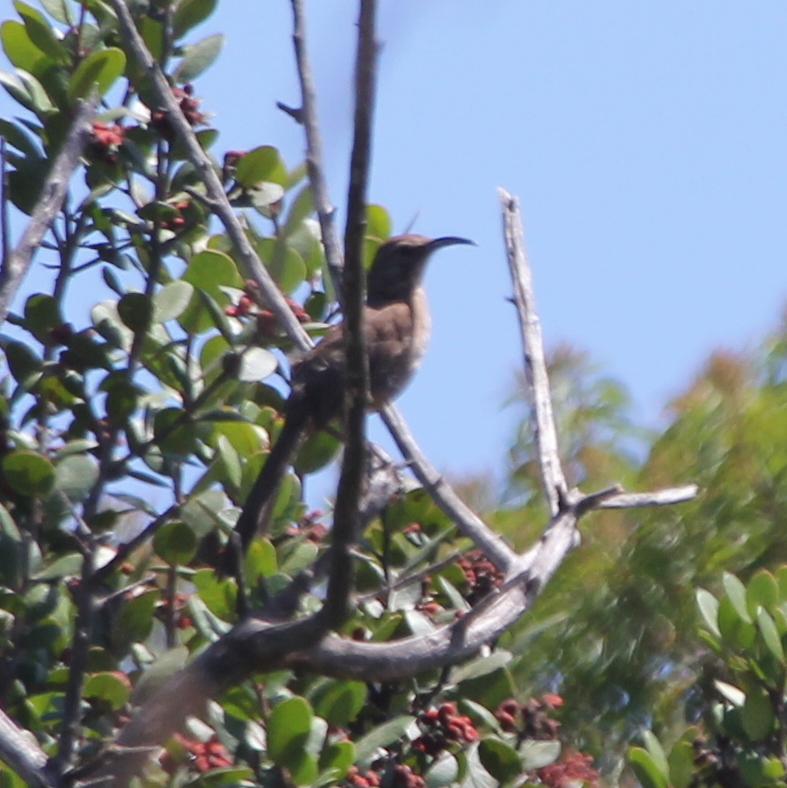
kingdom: Animalia
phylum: Chordata
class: Aves
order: Passeriformes
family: Mimidae
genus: Toxostoma
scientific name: Toxostoma redivivum
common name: California thrasher
